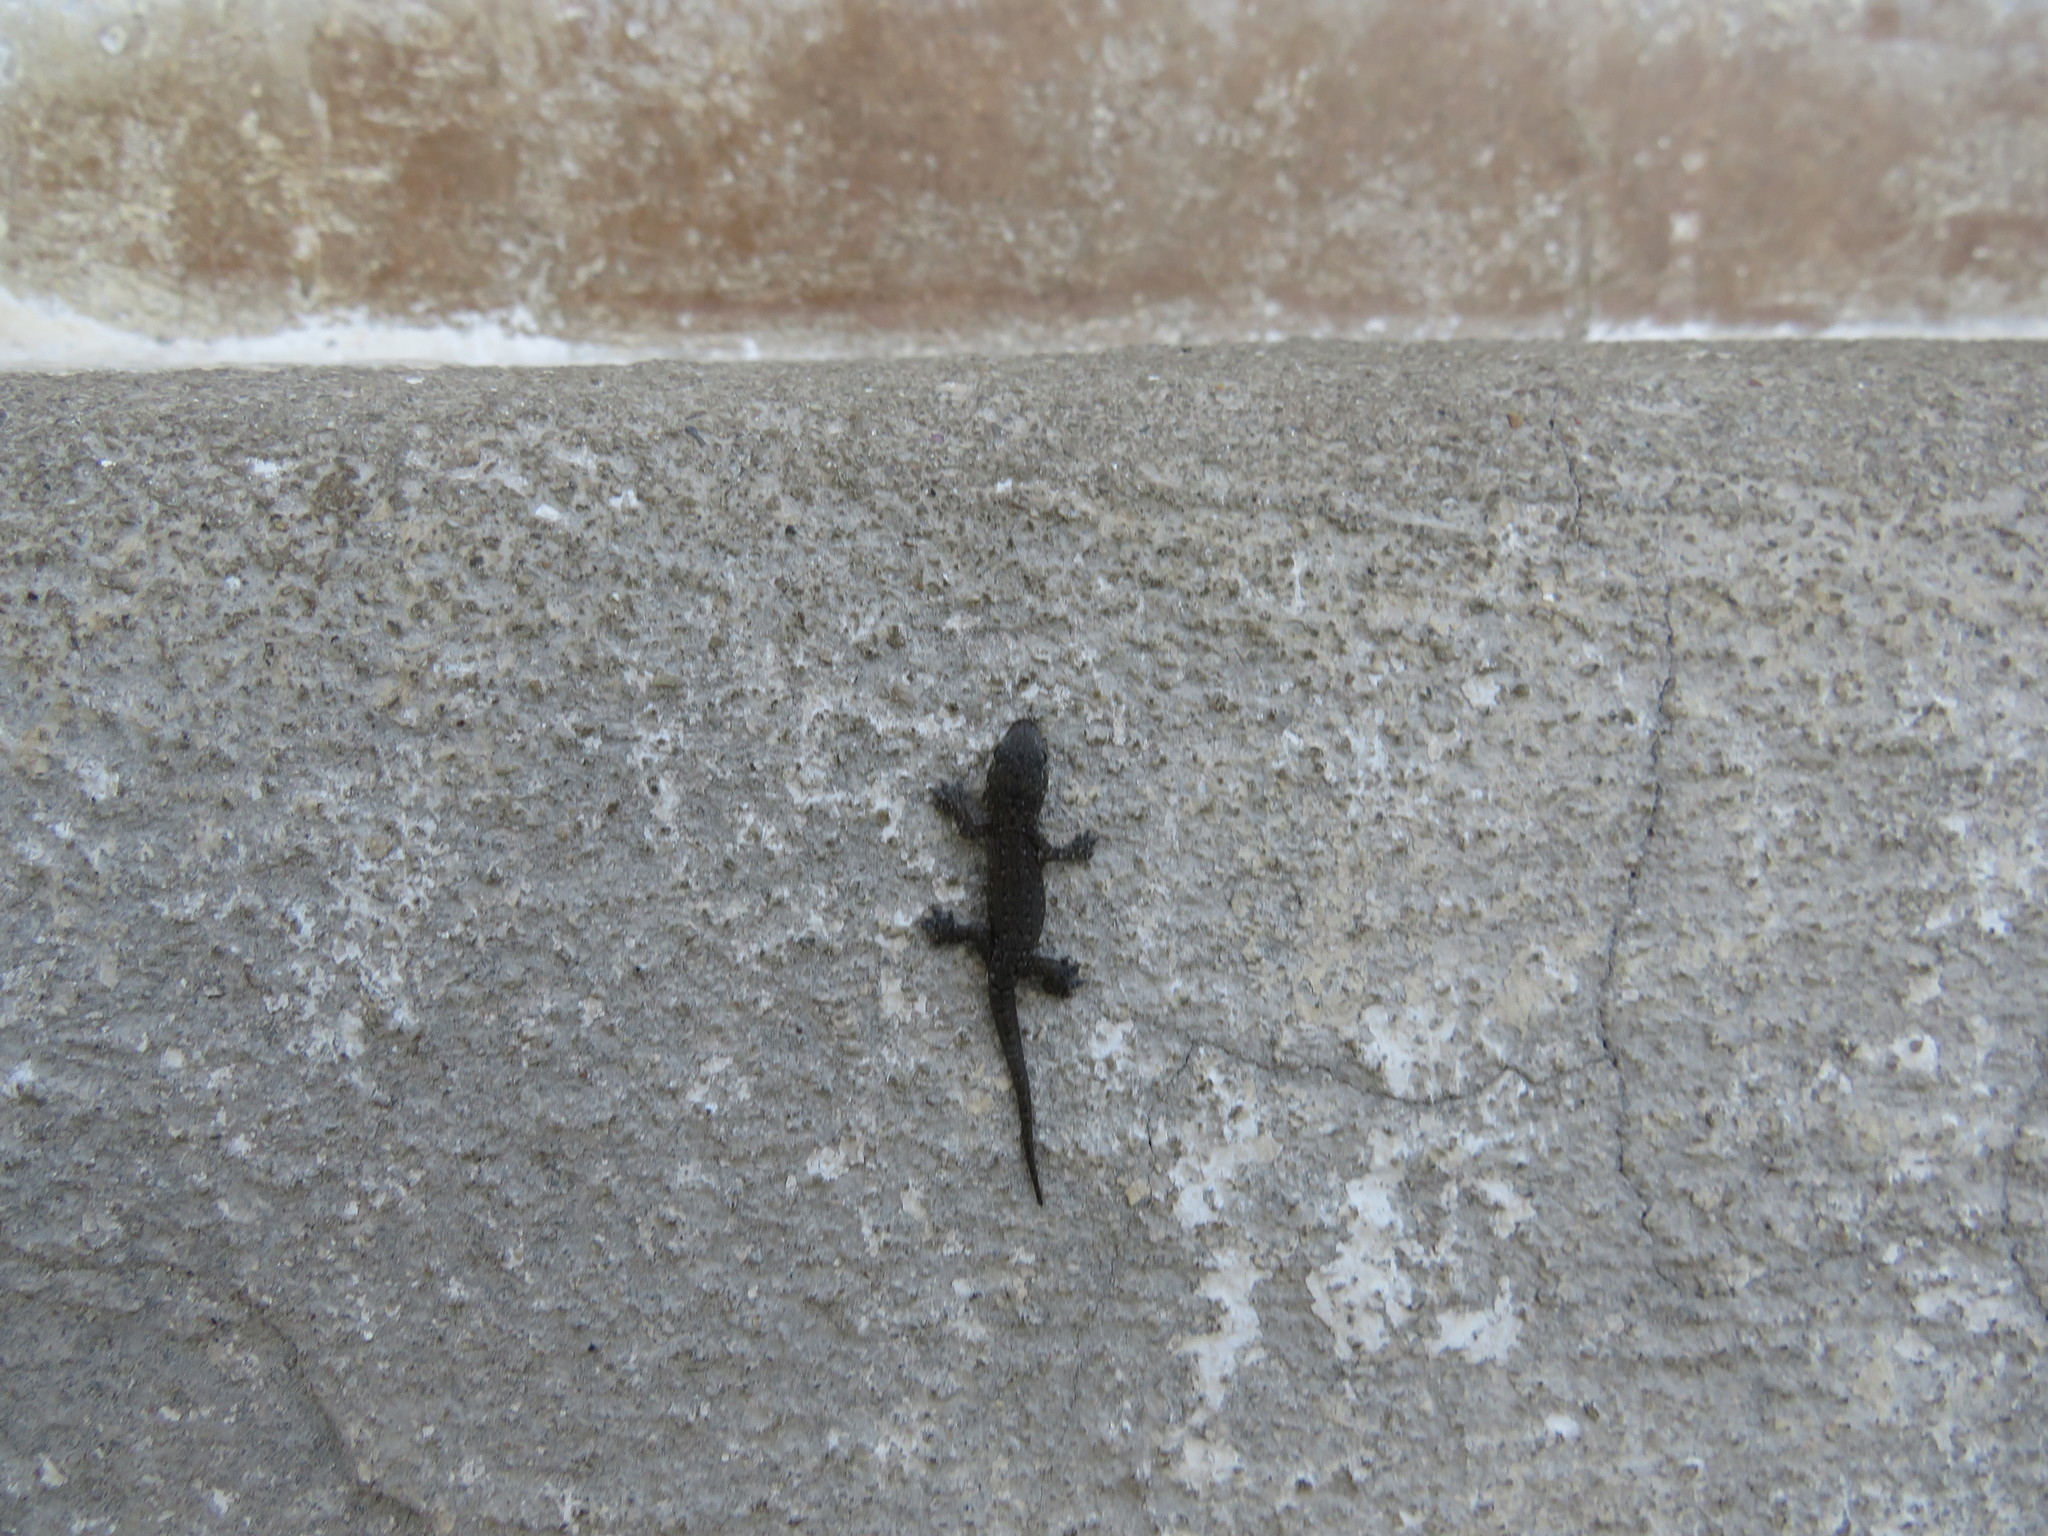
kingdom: Animalia
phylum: Chordata
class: Squamata
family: Gekkonidae
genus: Hemidactylus
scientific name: Hemidactylus frenatus
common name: Common house gecko
